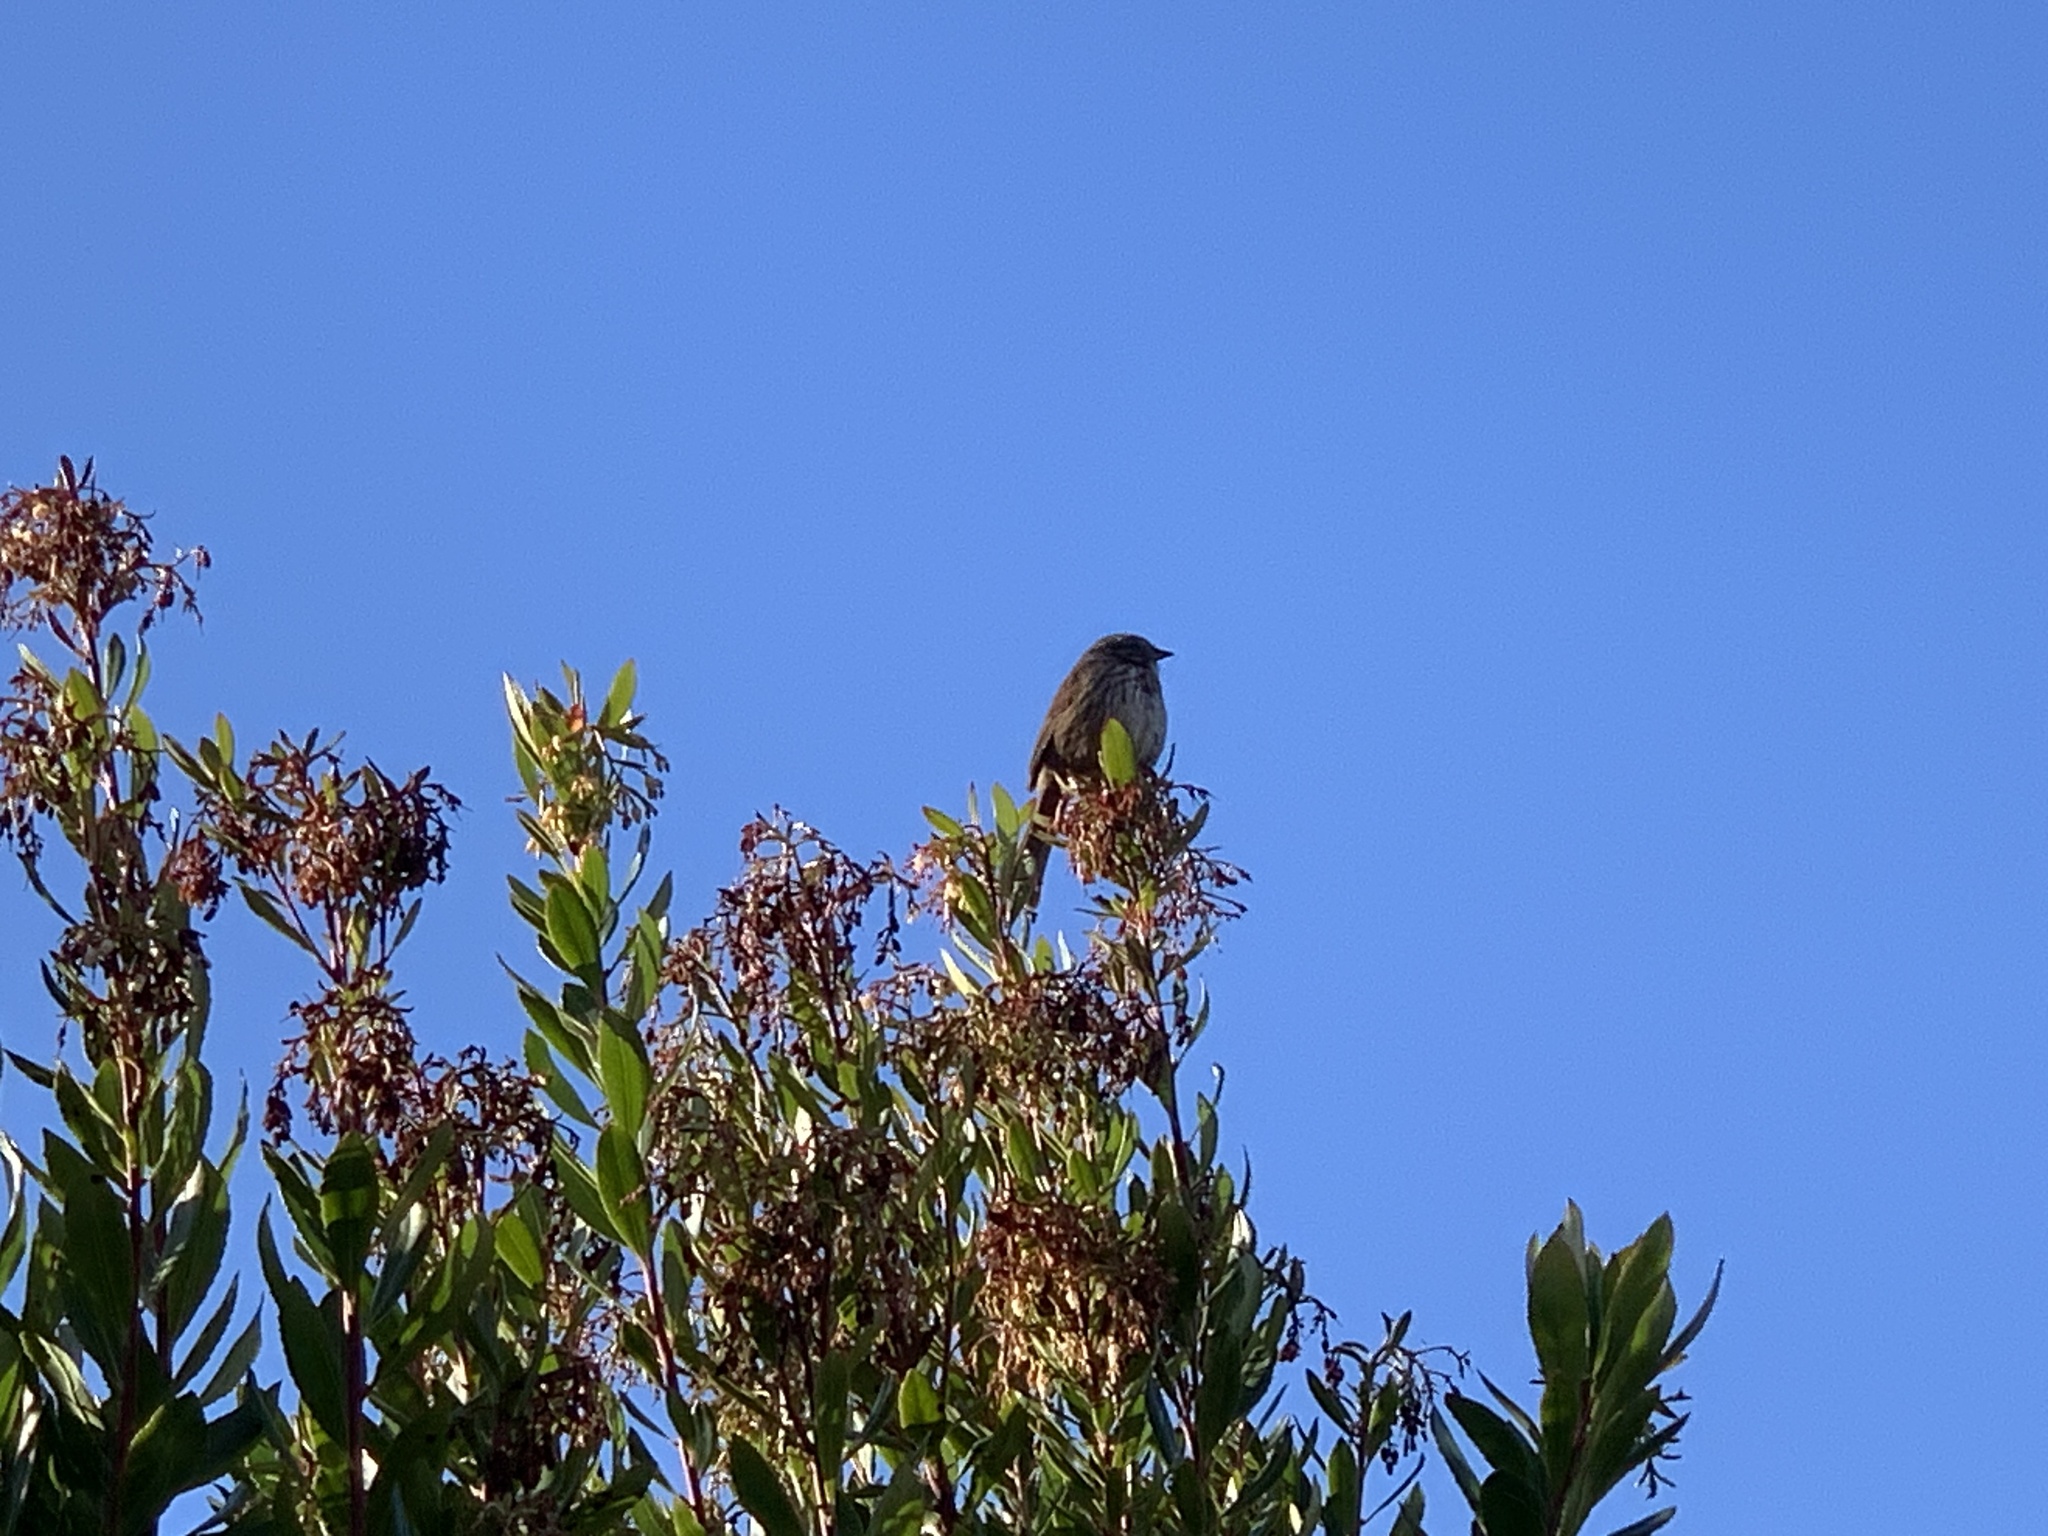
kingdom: Animalia
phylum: Chordata
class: Aves
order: Passeriformes
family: Passerellidae
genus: Melospiza
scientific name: Melospiza melodia
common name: Song sparrow
